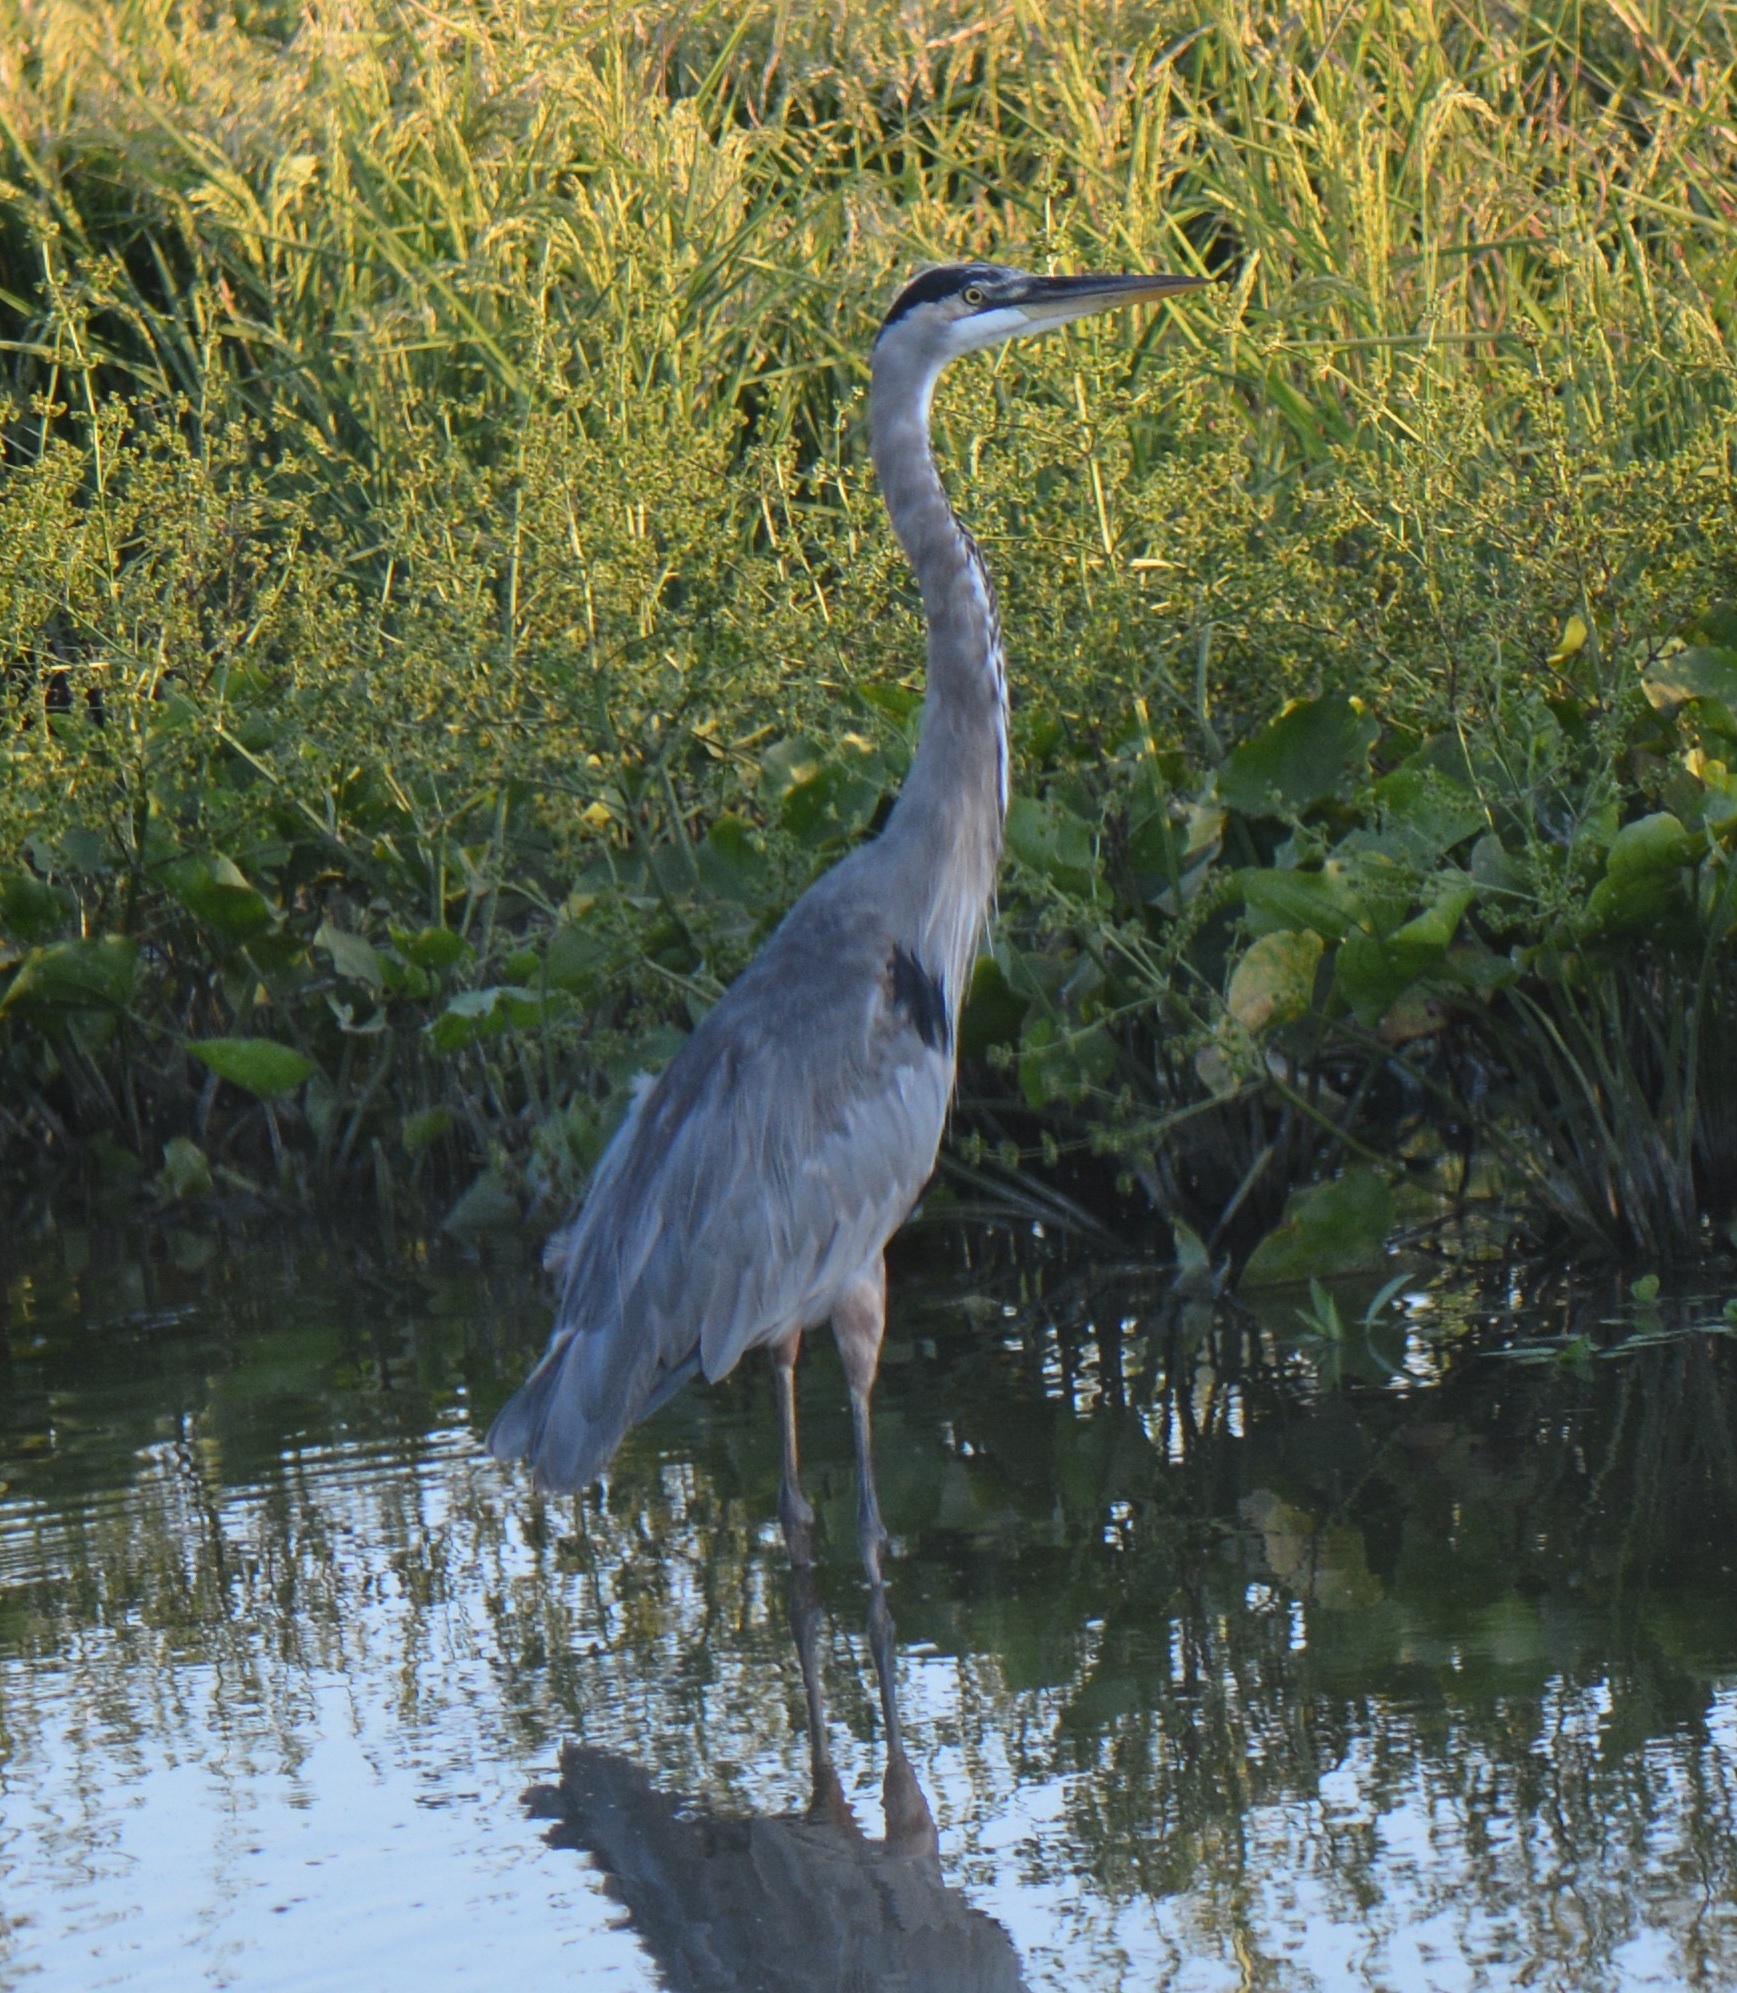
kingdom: Animalia
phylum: Chordata
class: Aves
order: Pelecaniformes
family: Ardeidae
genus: Ardea
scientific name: Ardea herodias
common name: Great blue heron
